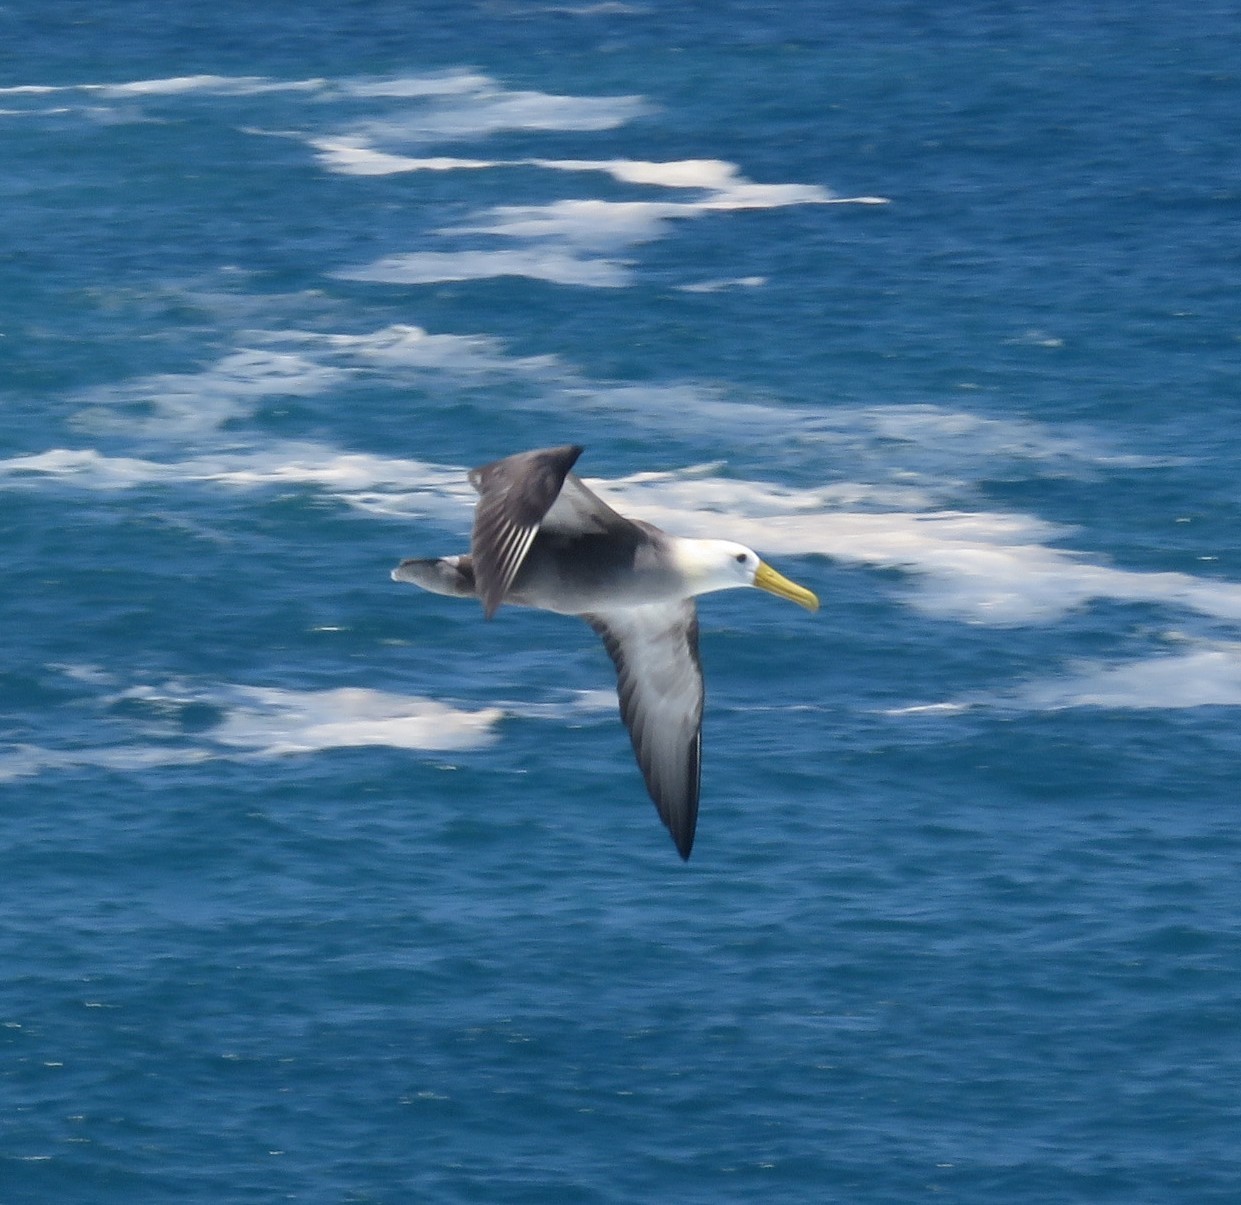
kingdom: Animalia
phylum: Chordata
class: Aves
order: Procellariiformes
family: Diomedeidae
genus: Phoebastria
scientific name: Phoebastria irrorata
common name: Waved albatross
